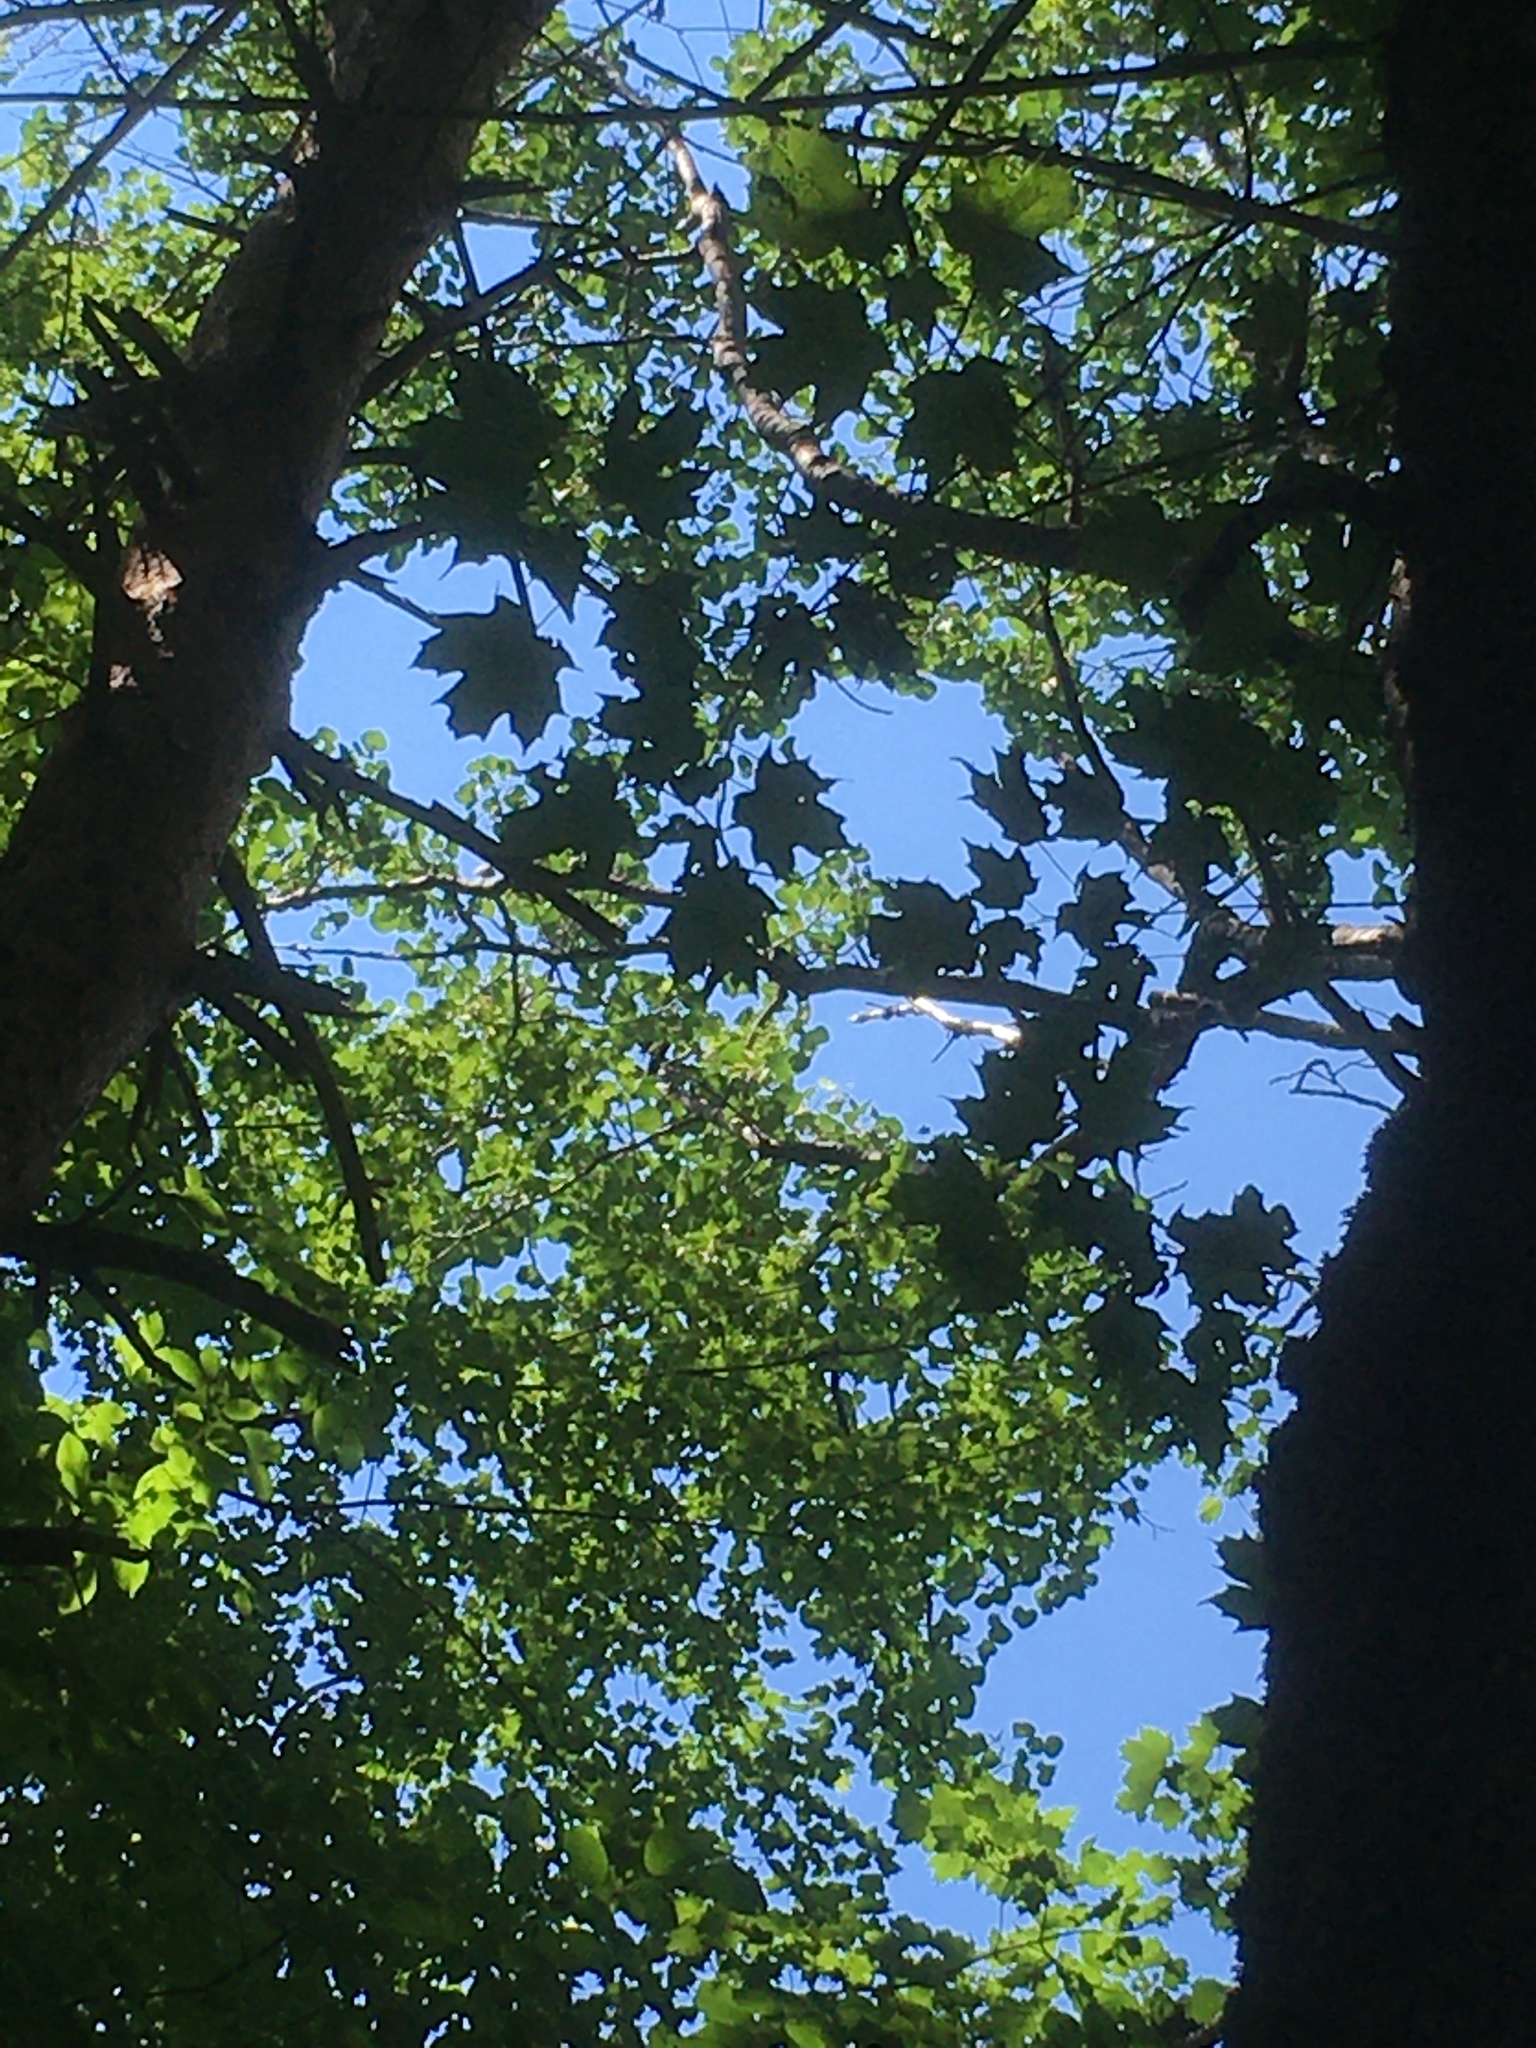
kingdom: Plantae
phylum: Tracheophyta
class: Magnoliopsida
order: Sapindales
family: Sapindaceae
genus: Acer
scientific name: Acer saccharum
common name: Sugar maple
